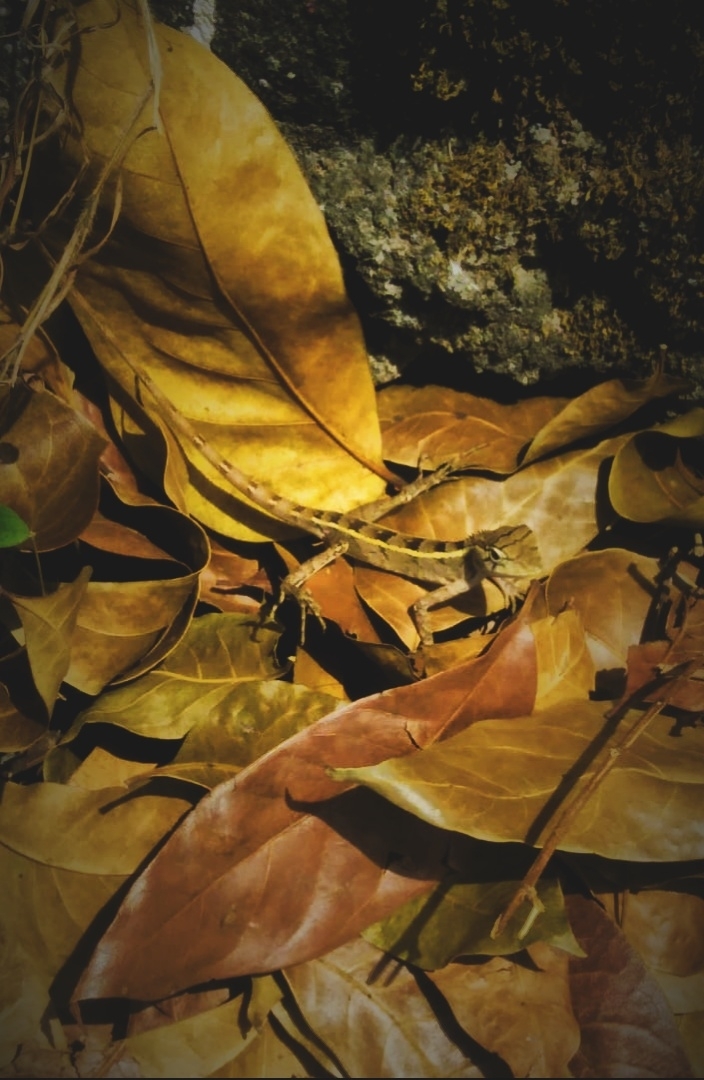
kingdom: Animalia
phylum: Chordata
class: Squamata
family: Agamidae
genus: Calotes
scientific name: Calotes versicolor
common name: Oriental garden lizard
